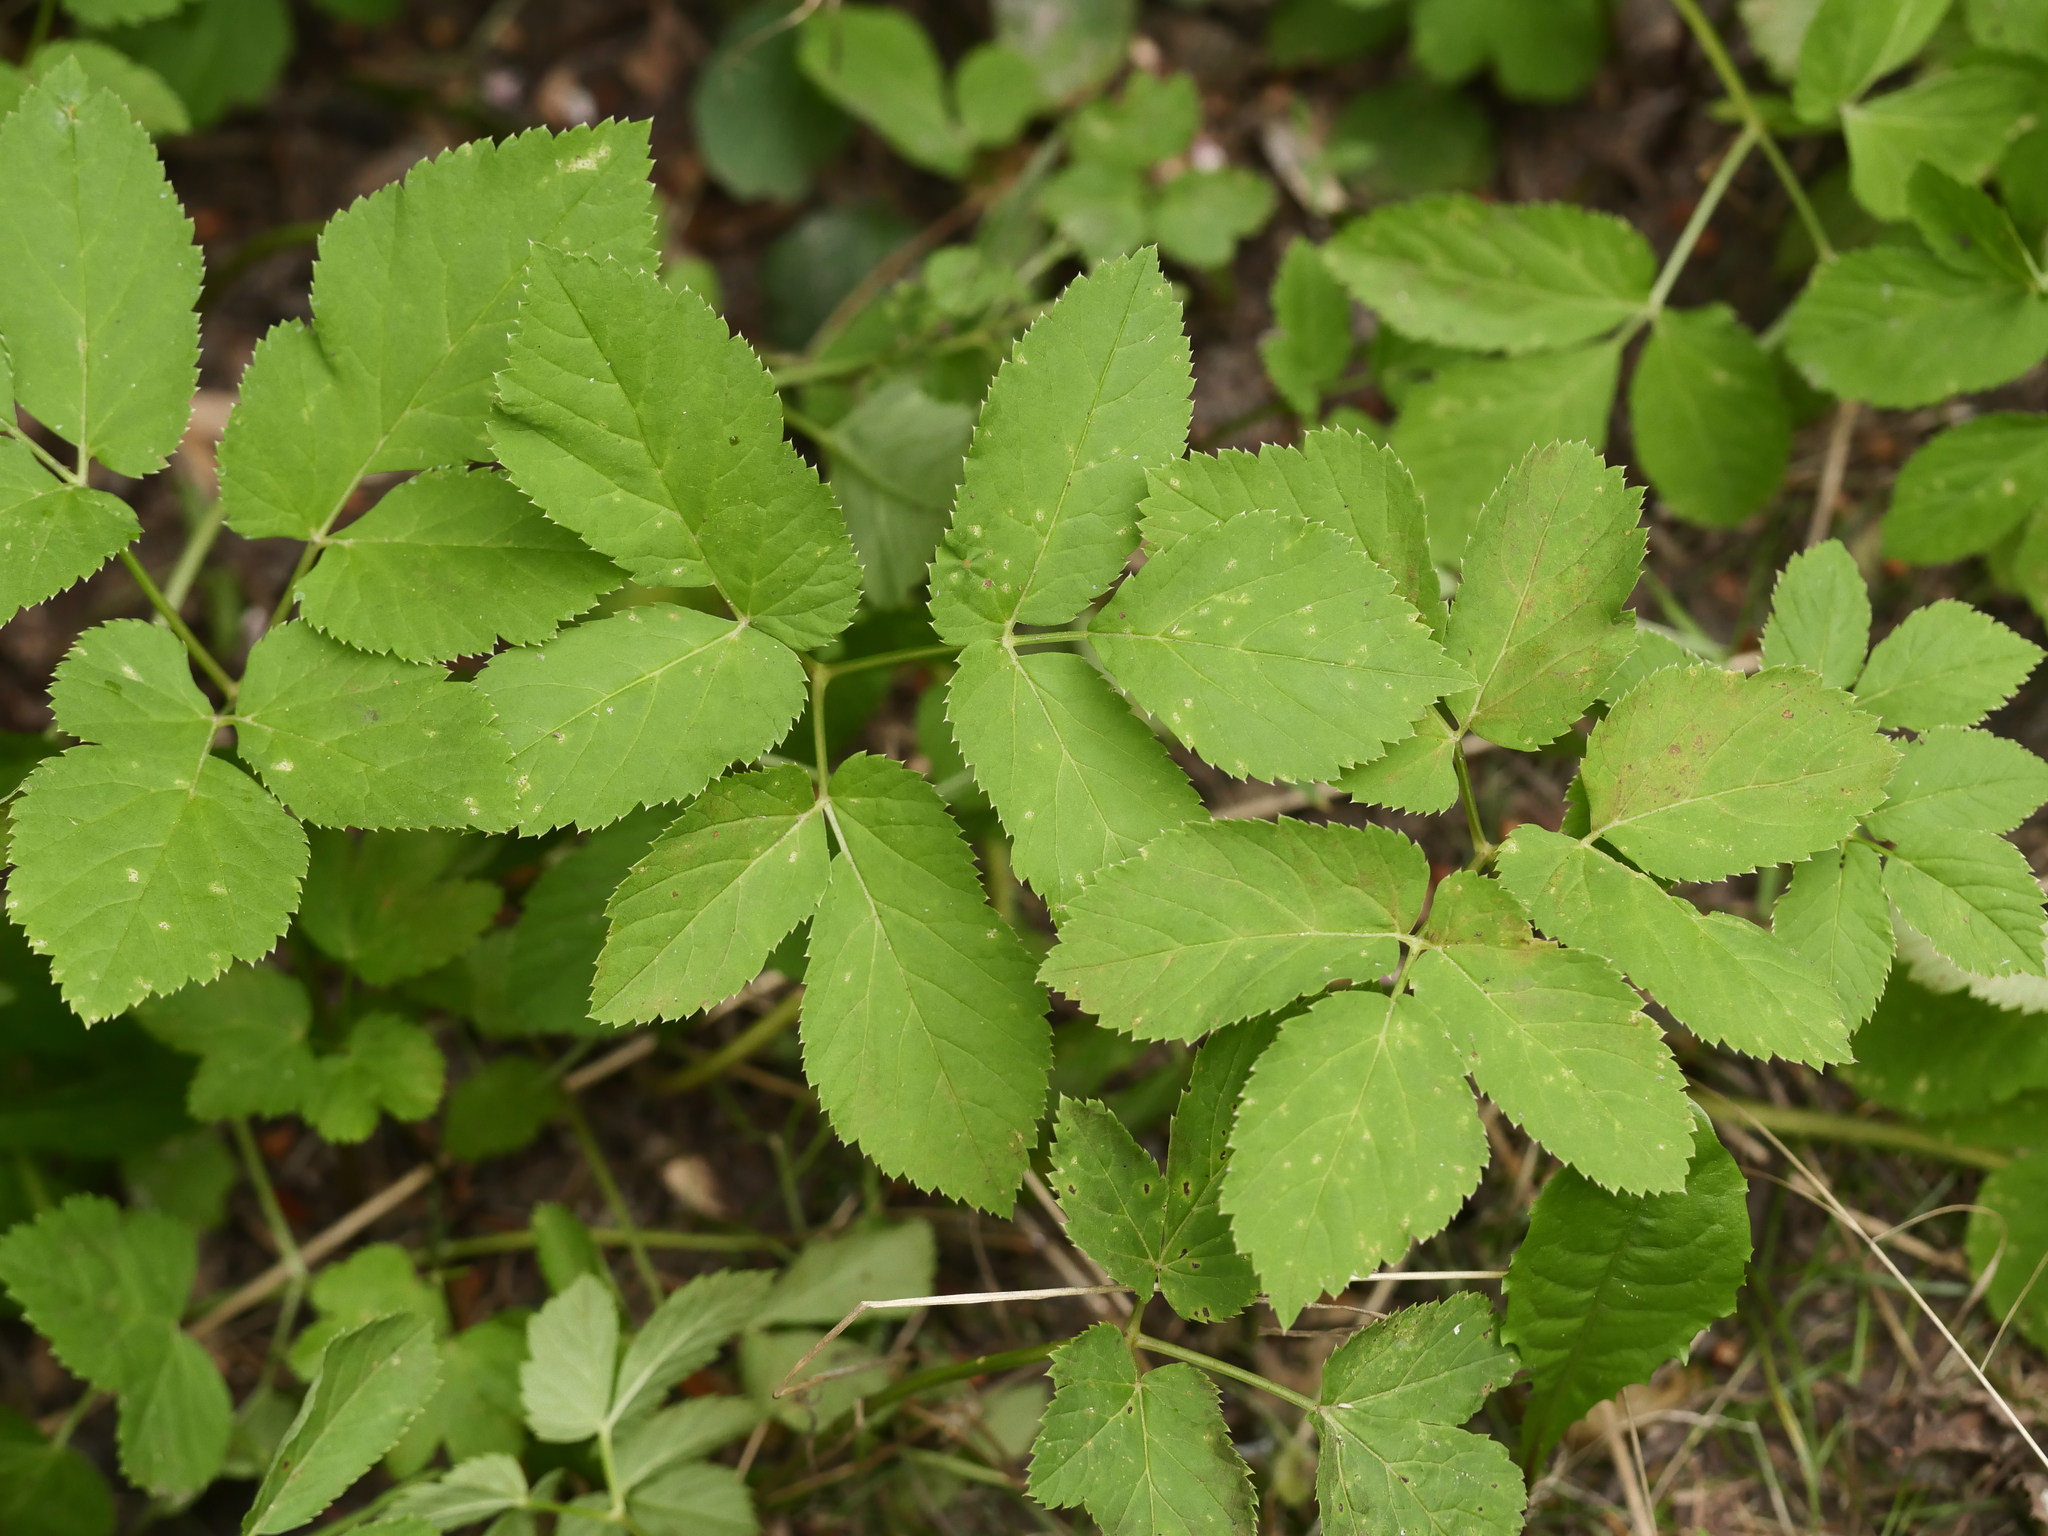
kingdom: Plantae
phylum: Tracheophyta
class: Magnoliopsida
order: Apiales
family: Apiaceae
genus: Aegopodium
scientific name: Aegopodium podagraria
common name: Ground-elder
